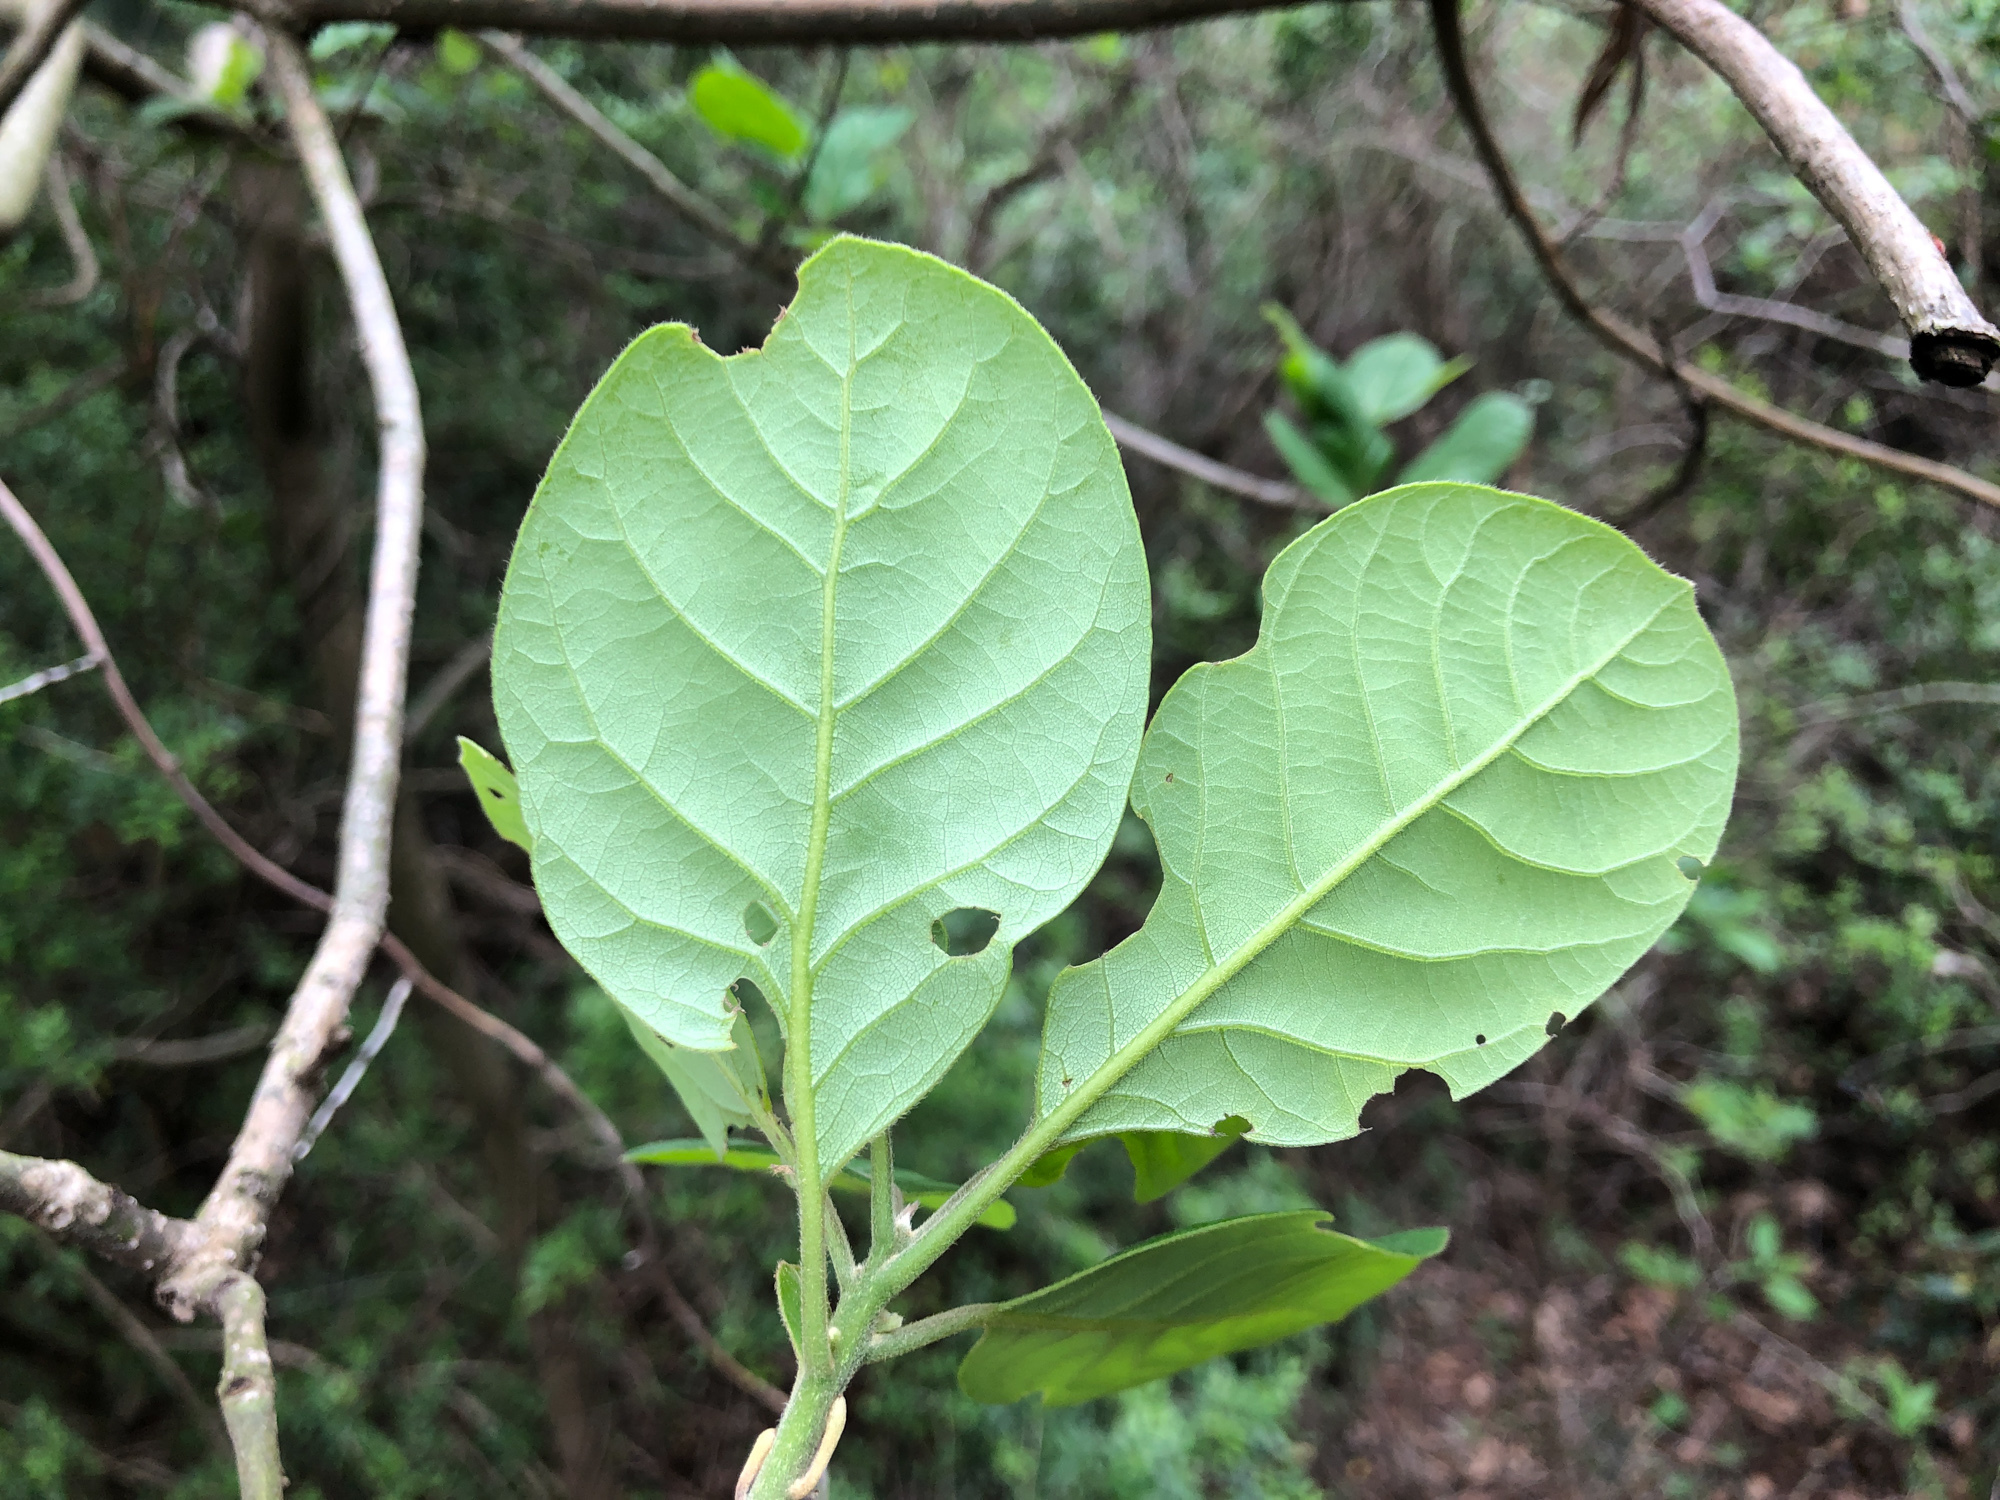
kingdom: Plantae
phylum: Tracheophyta
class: Magnoliopsida
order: Laurales
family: Lauraceae
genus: Litsea
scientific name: Litsea glutinosa
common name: Indian-laurel
